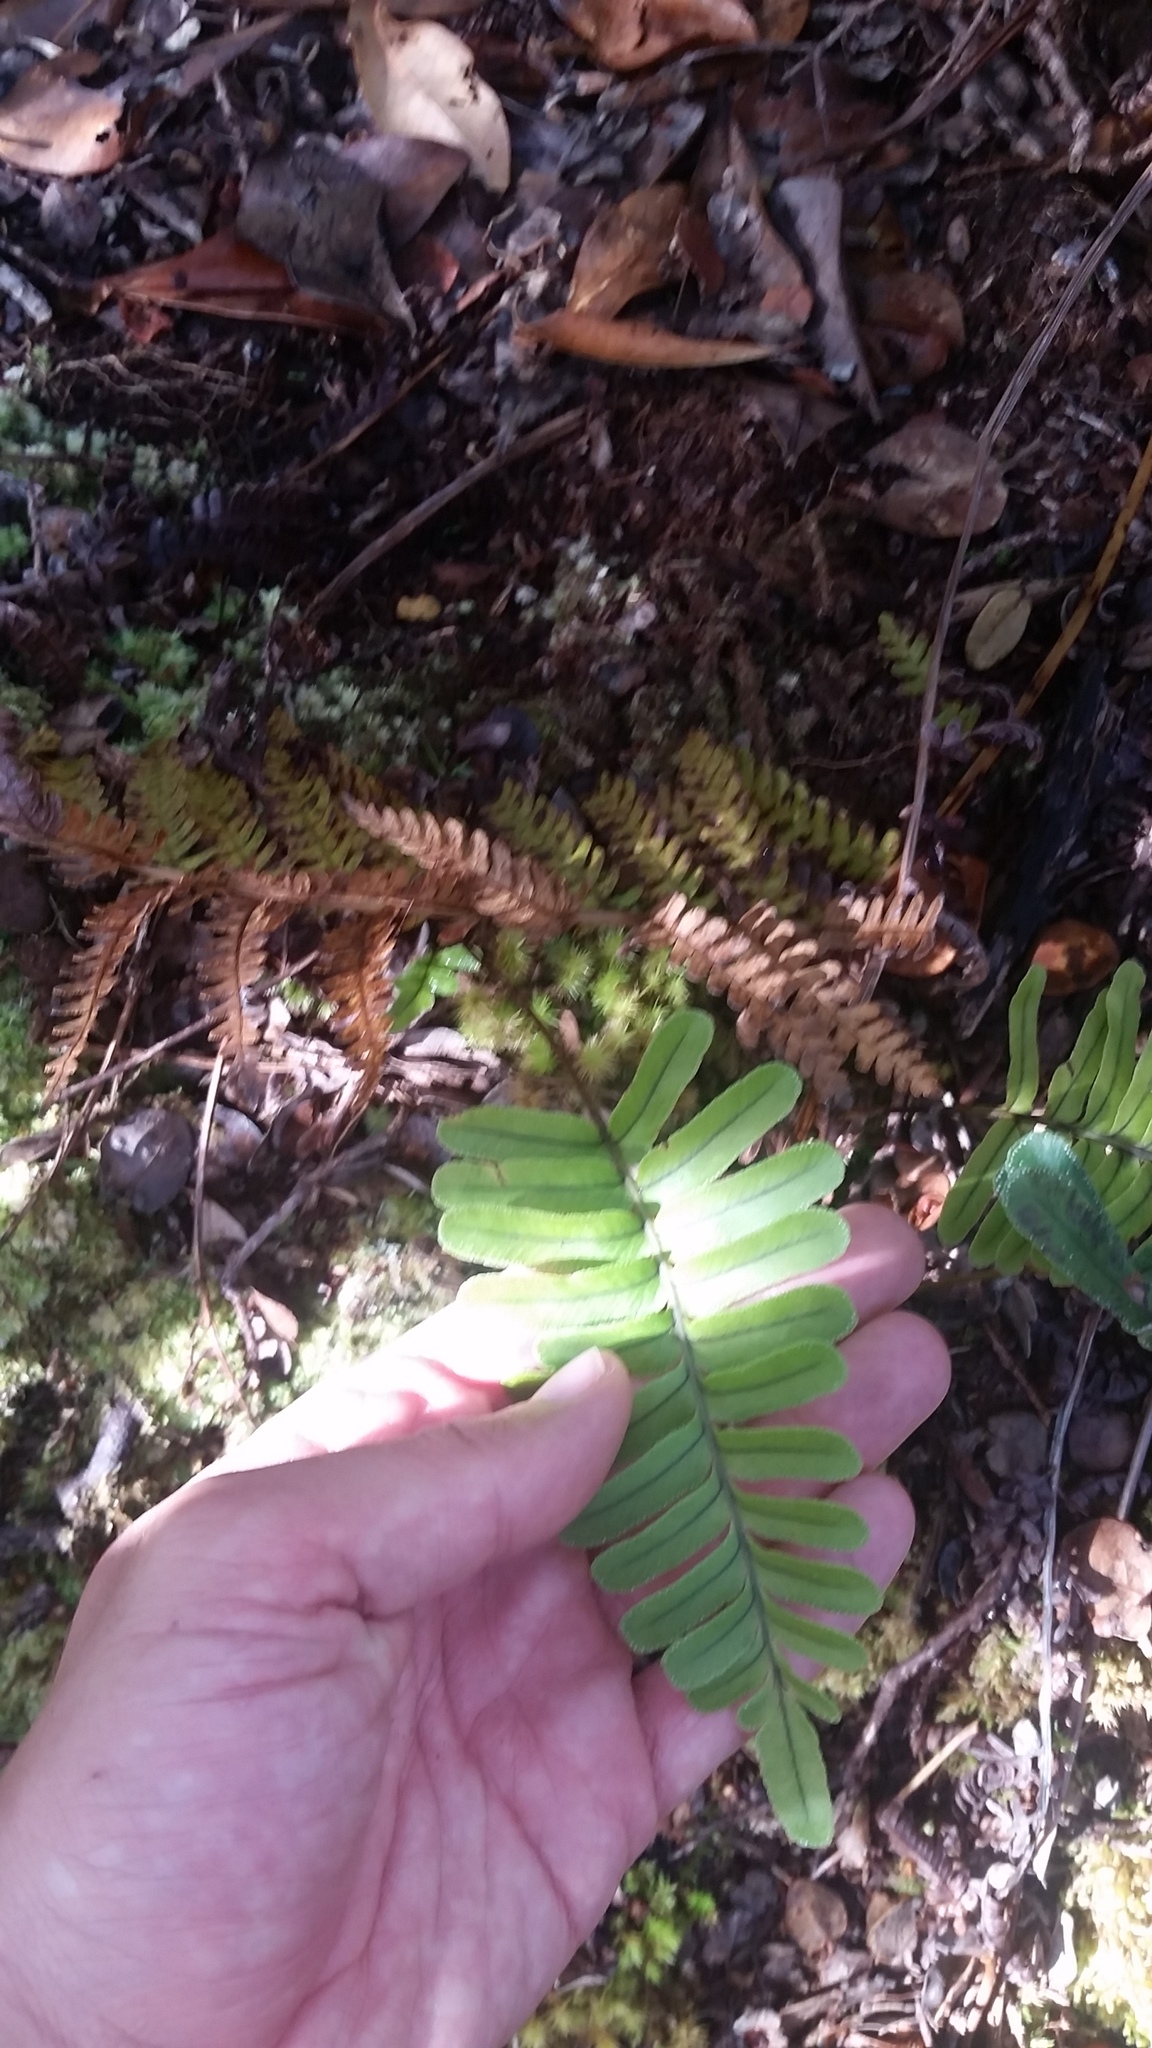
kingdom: Plantae
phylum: Tracheophyta
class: Polypodiopsida
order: Polypodiales
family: Polypodiaceae
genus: Polypodium
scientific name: Polypodium pellucidum
